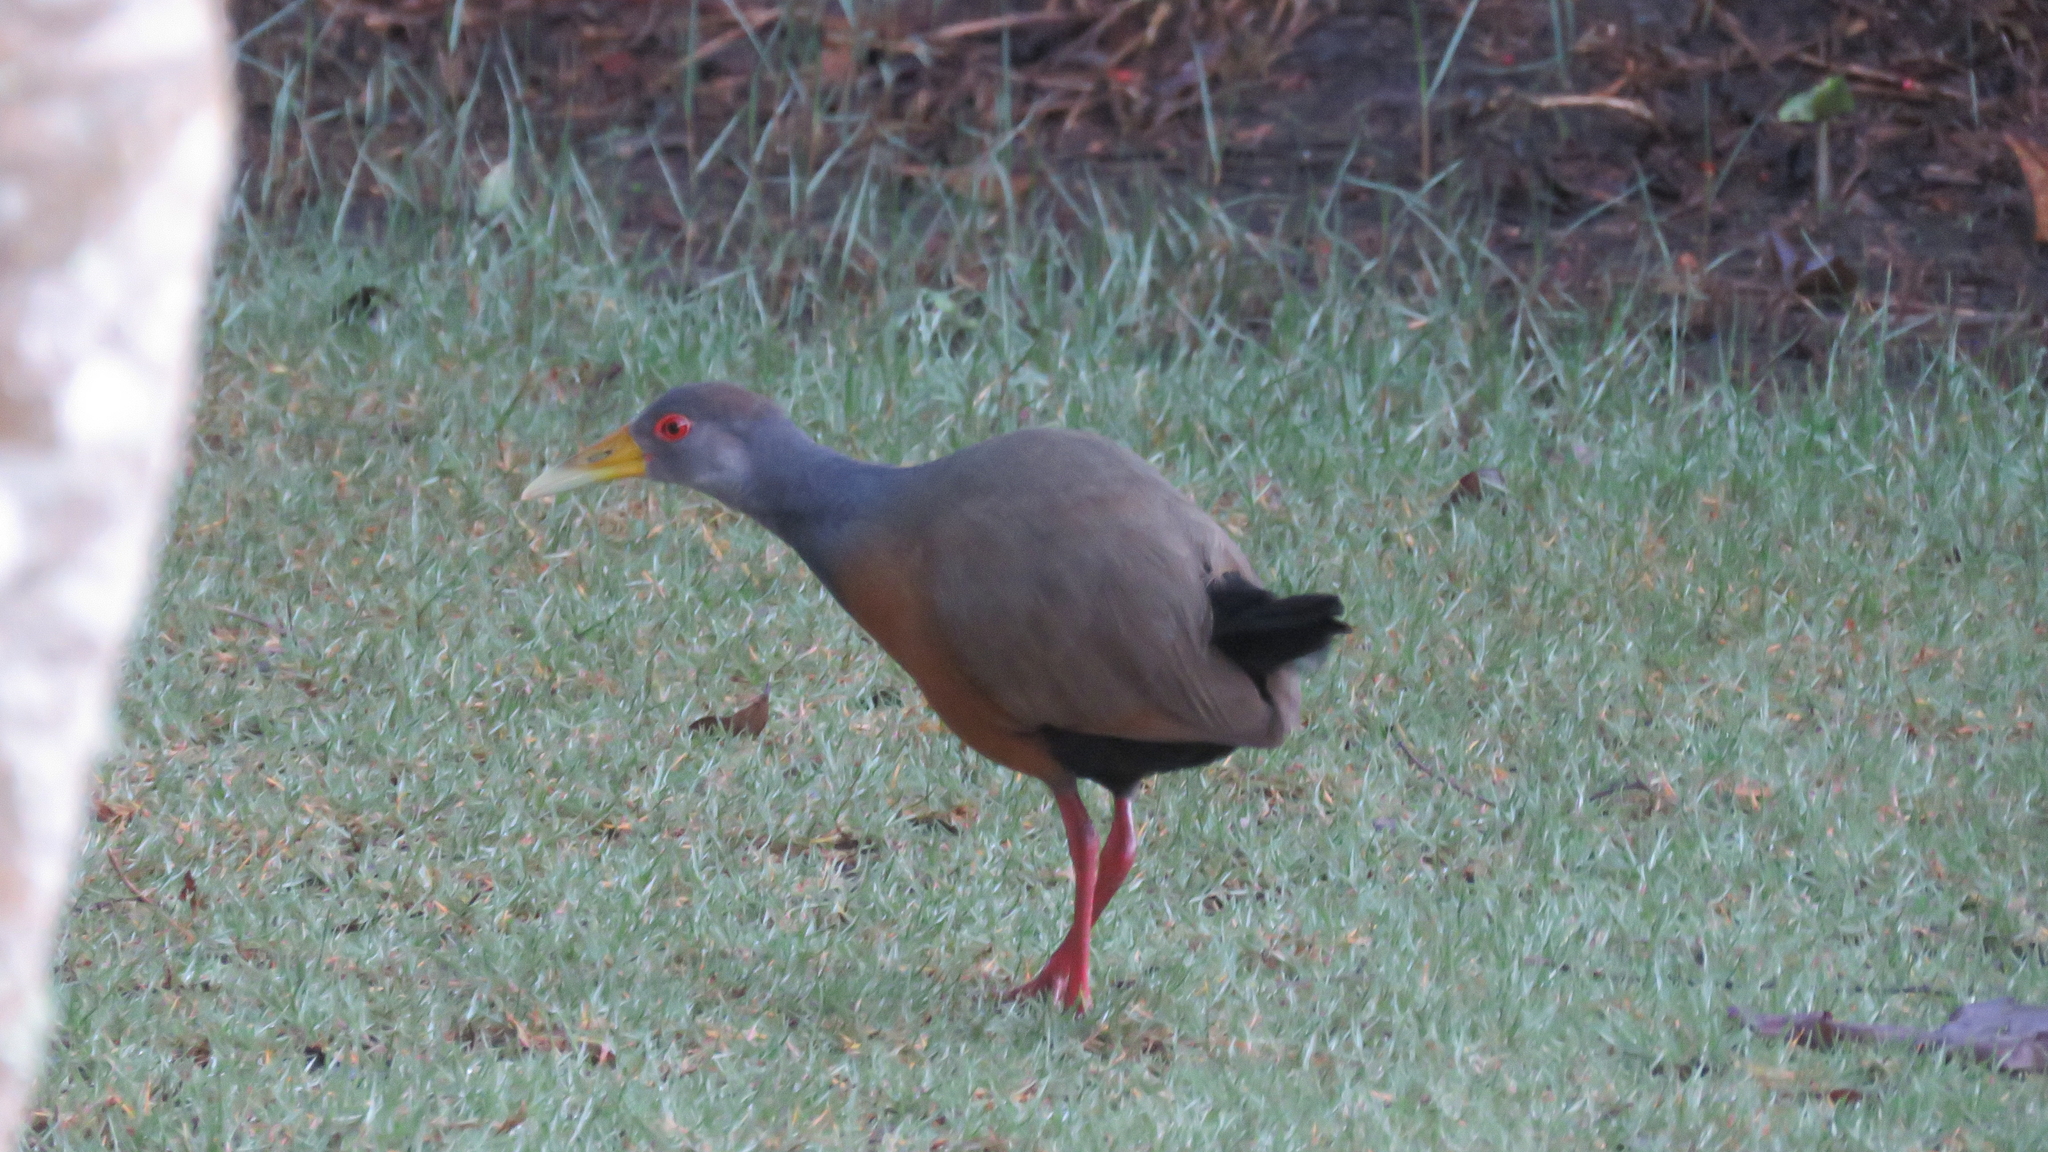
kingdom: Animalia
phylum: Chordata
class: Aves
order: Gruiformes
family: Rallidae
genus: Aramides
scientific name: Aramides cajanea
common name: Gray-necked wood-rail
